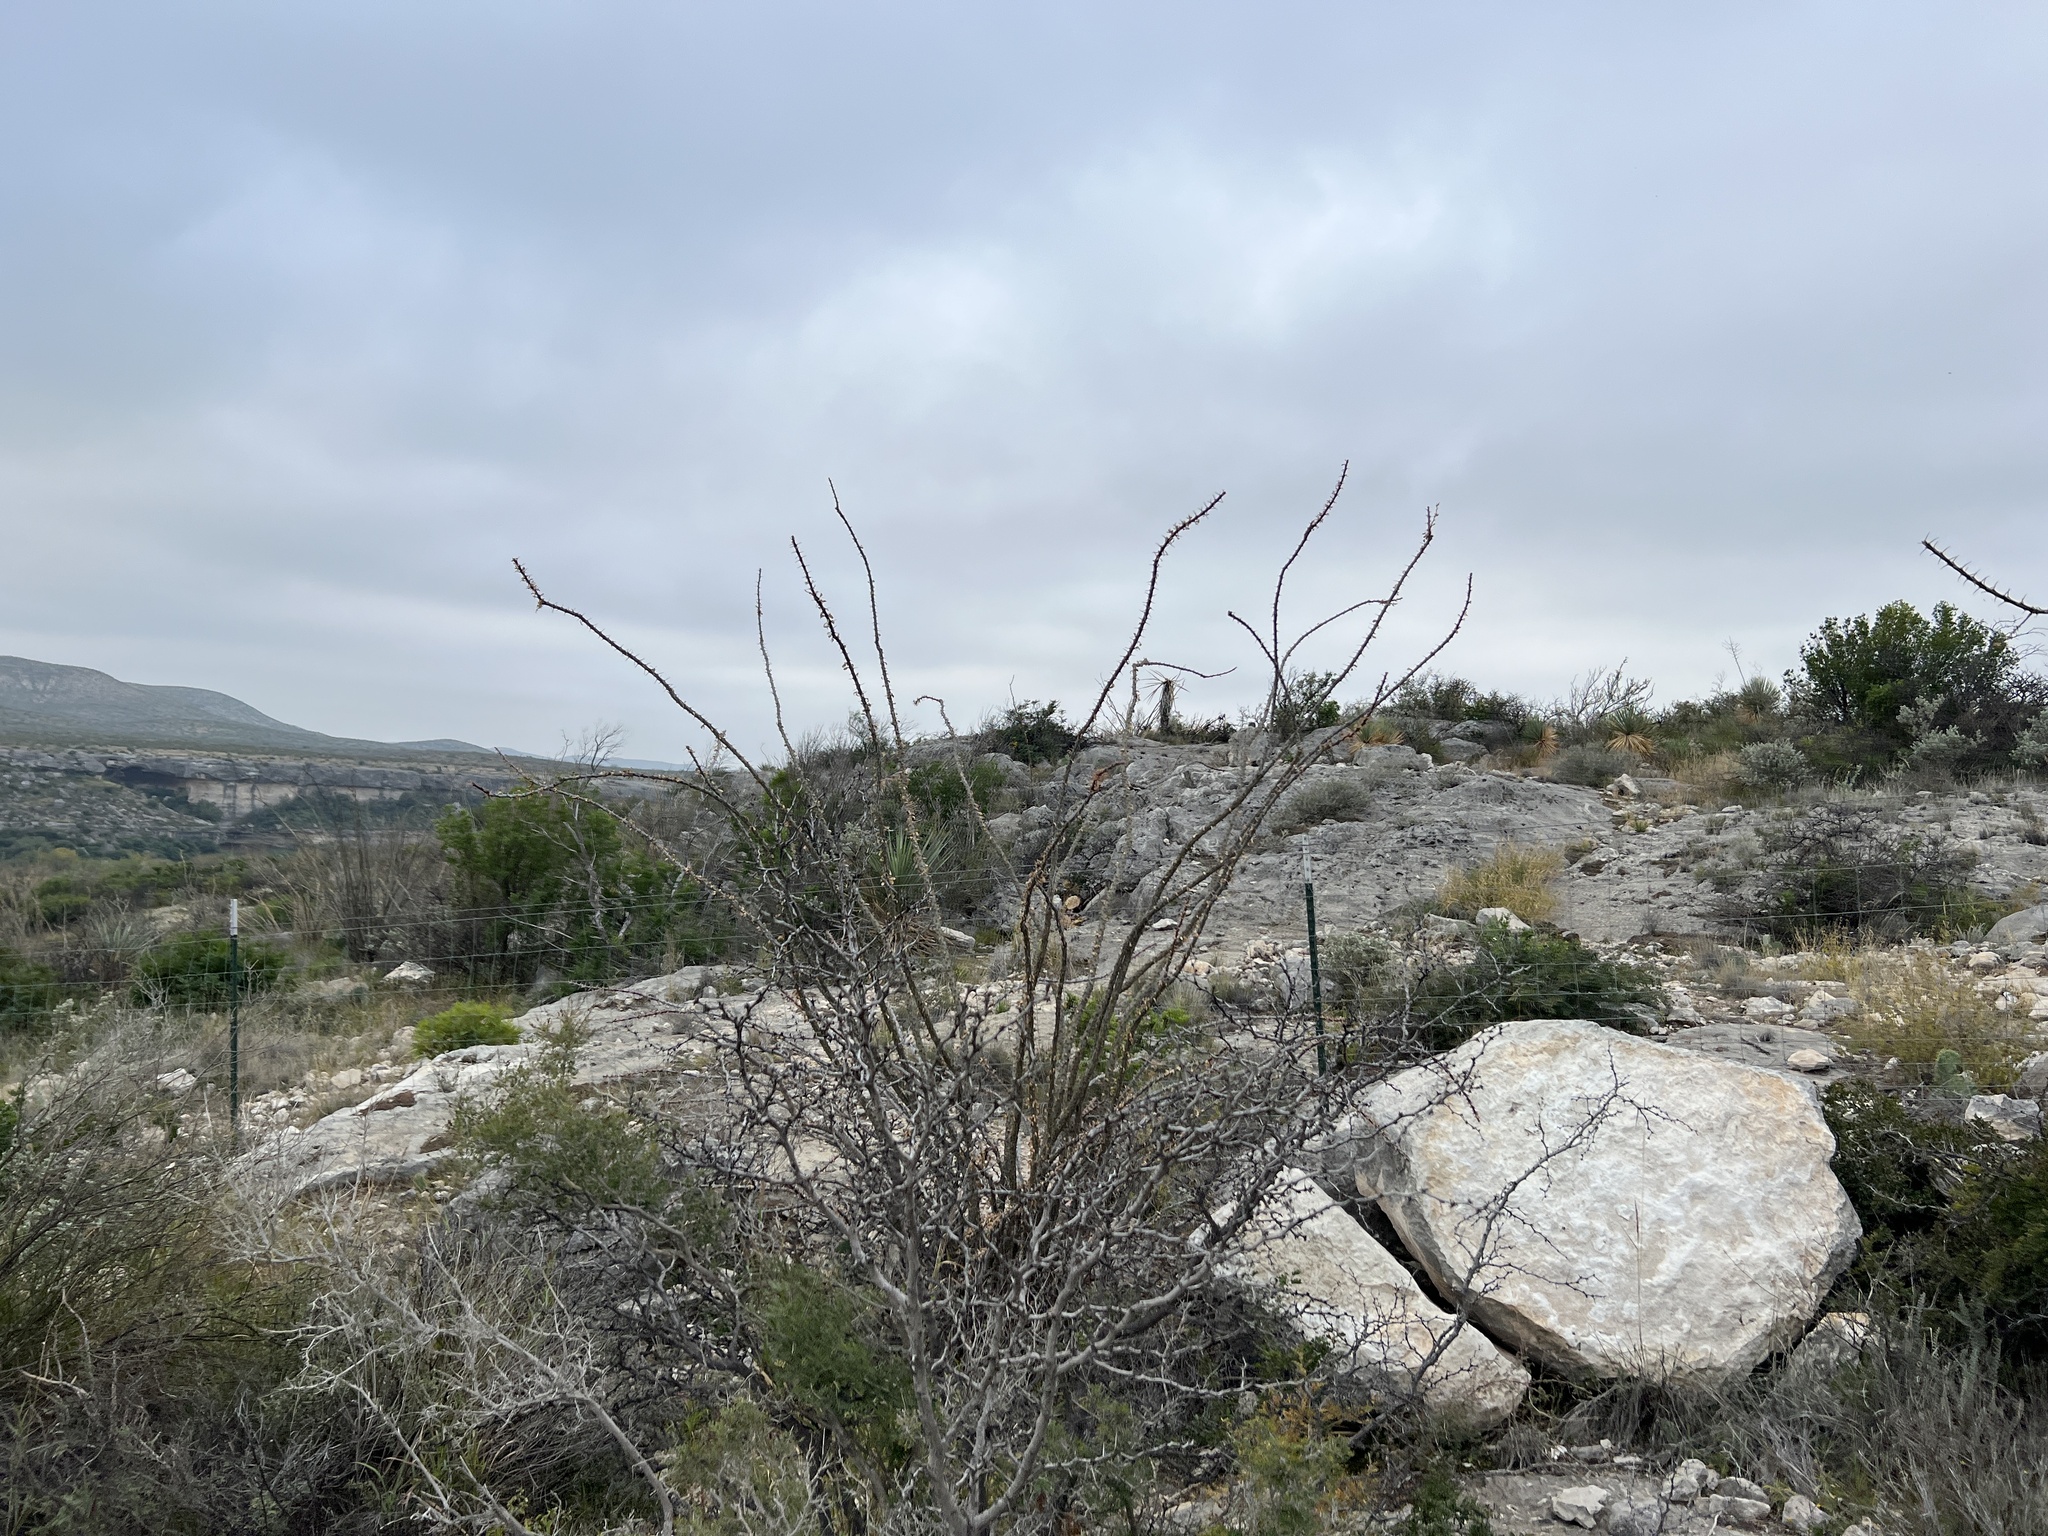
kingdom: Plantae
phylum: Tracheophyta
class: Magnoliopsida
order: Ericales
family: Fouquieriaceae
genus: Fouquieria
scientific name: Fouquieria splendens
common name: Vine-cactus
